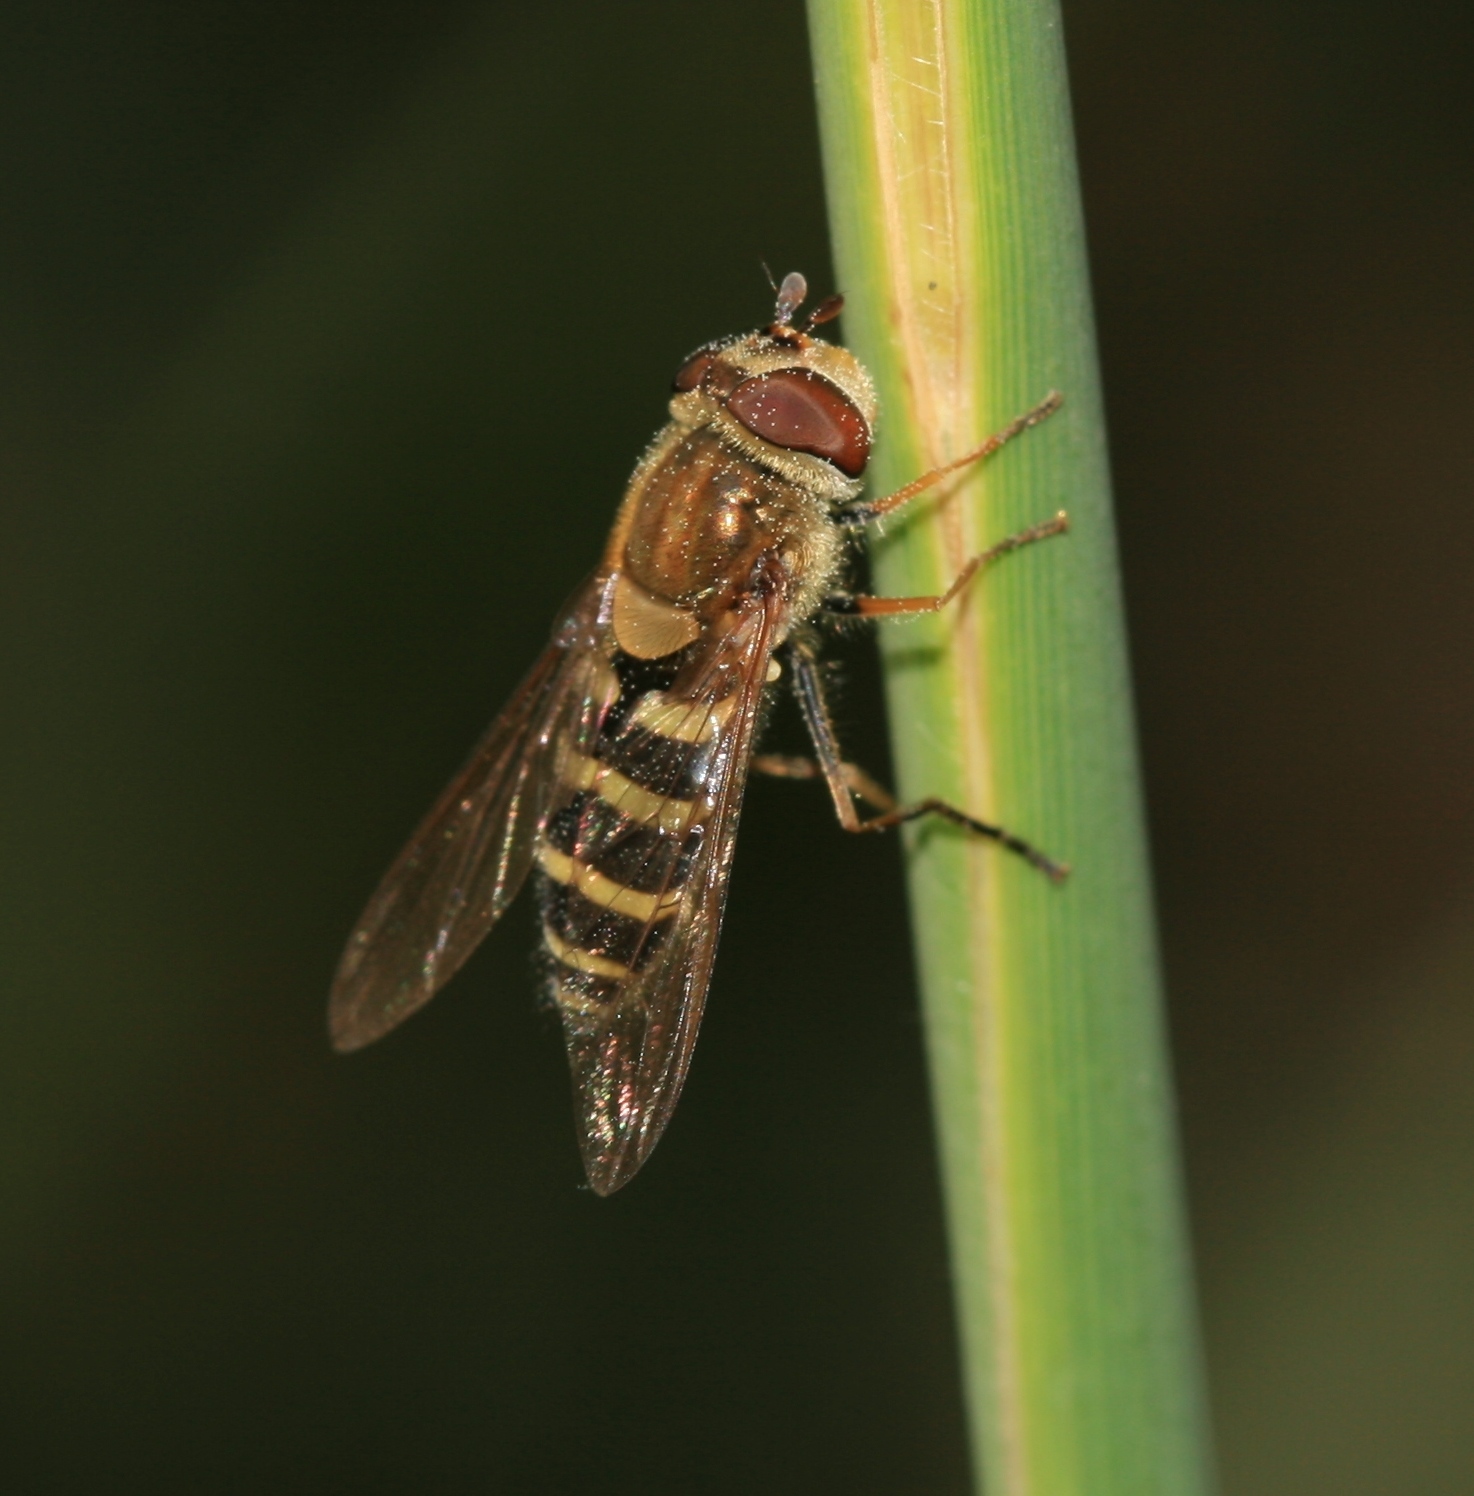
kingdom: Animalia
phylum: Arthropoda
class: Insecta
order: Diptera
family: Syrphidae
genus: Syrphus
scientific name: Syrphus
